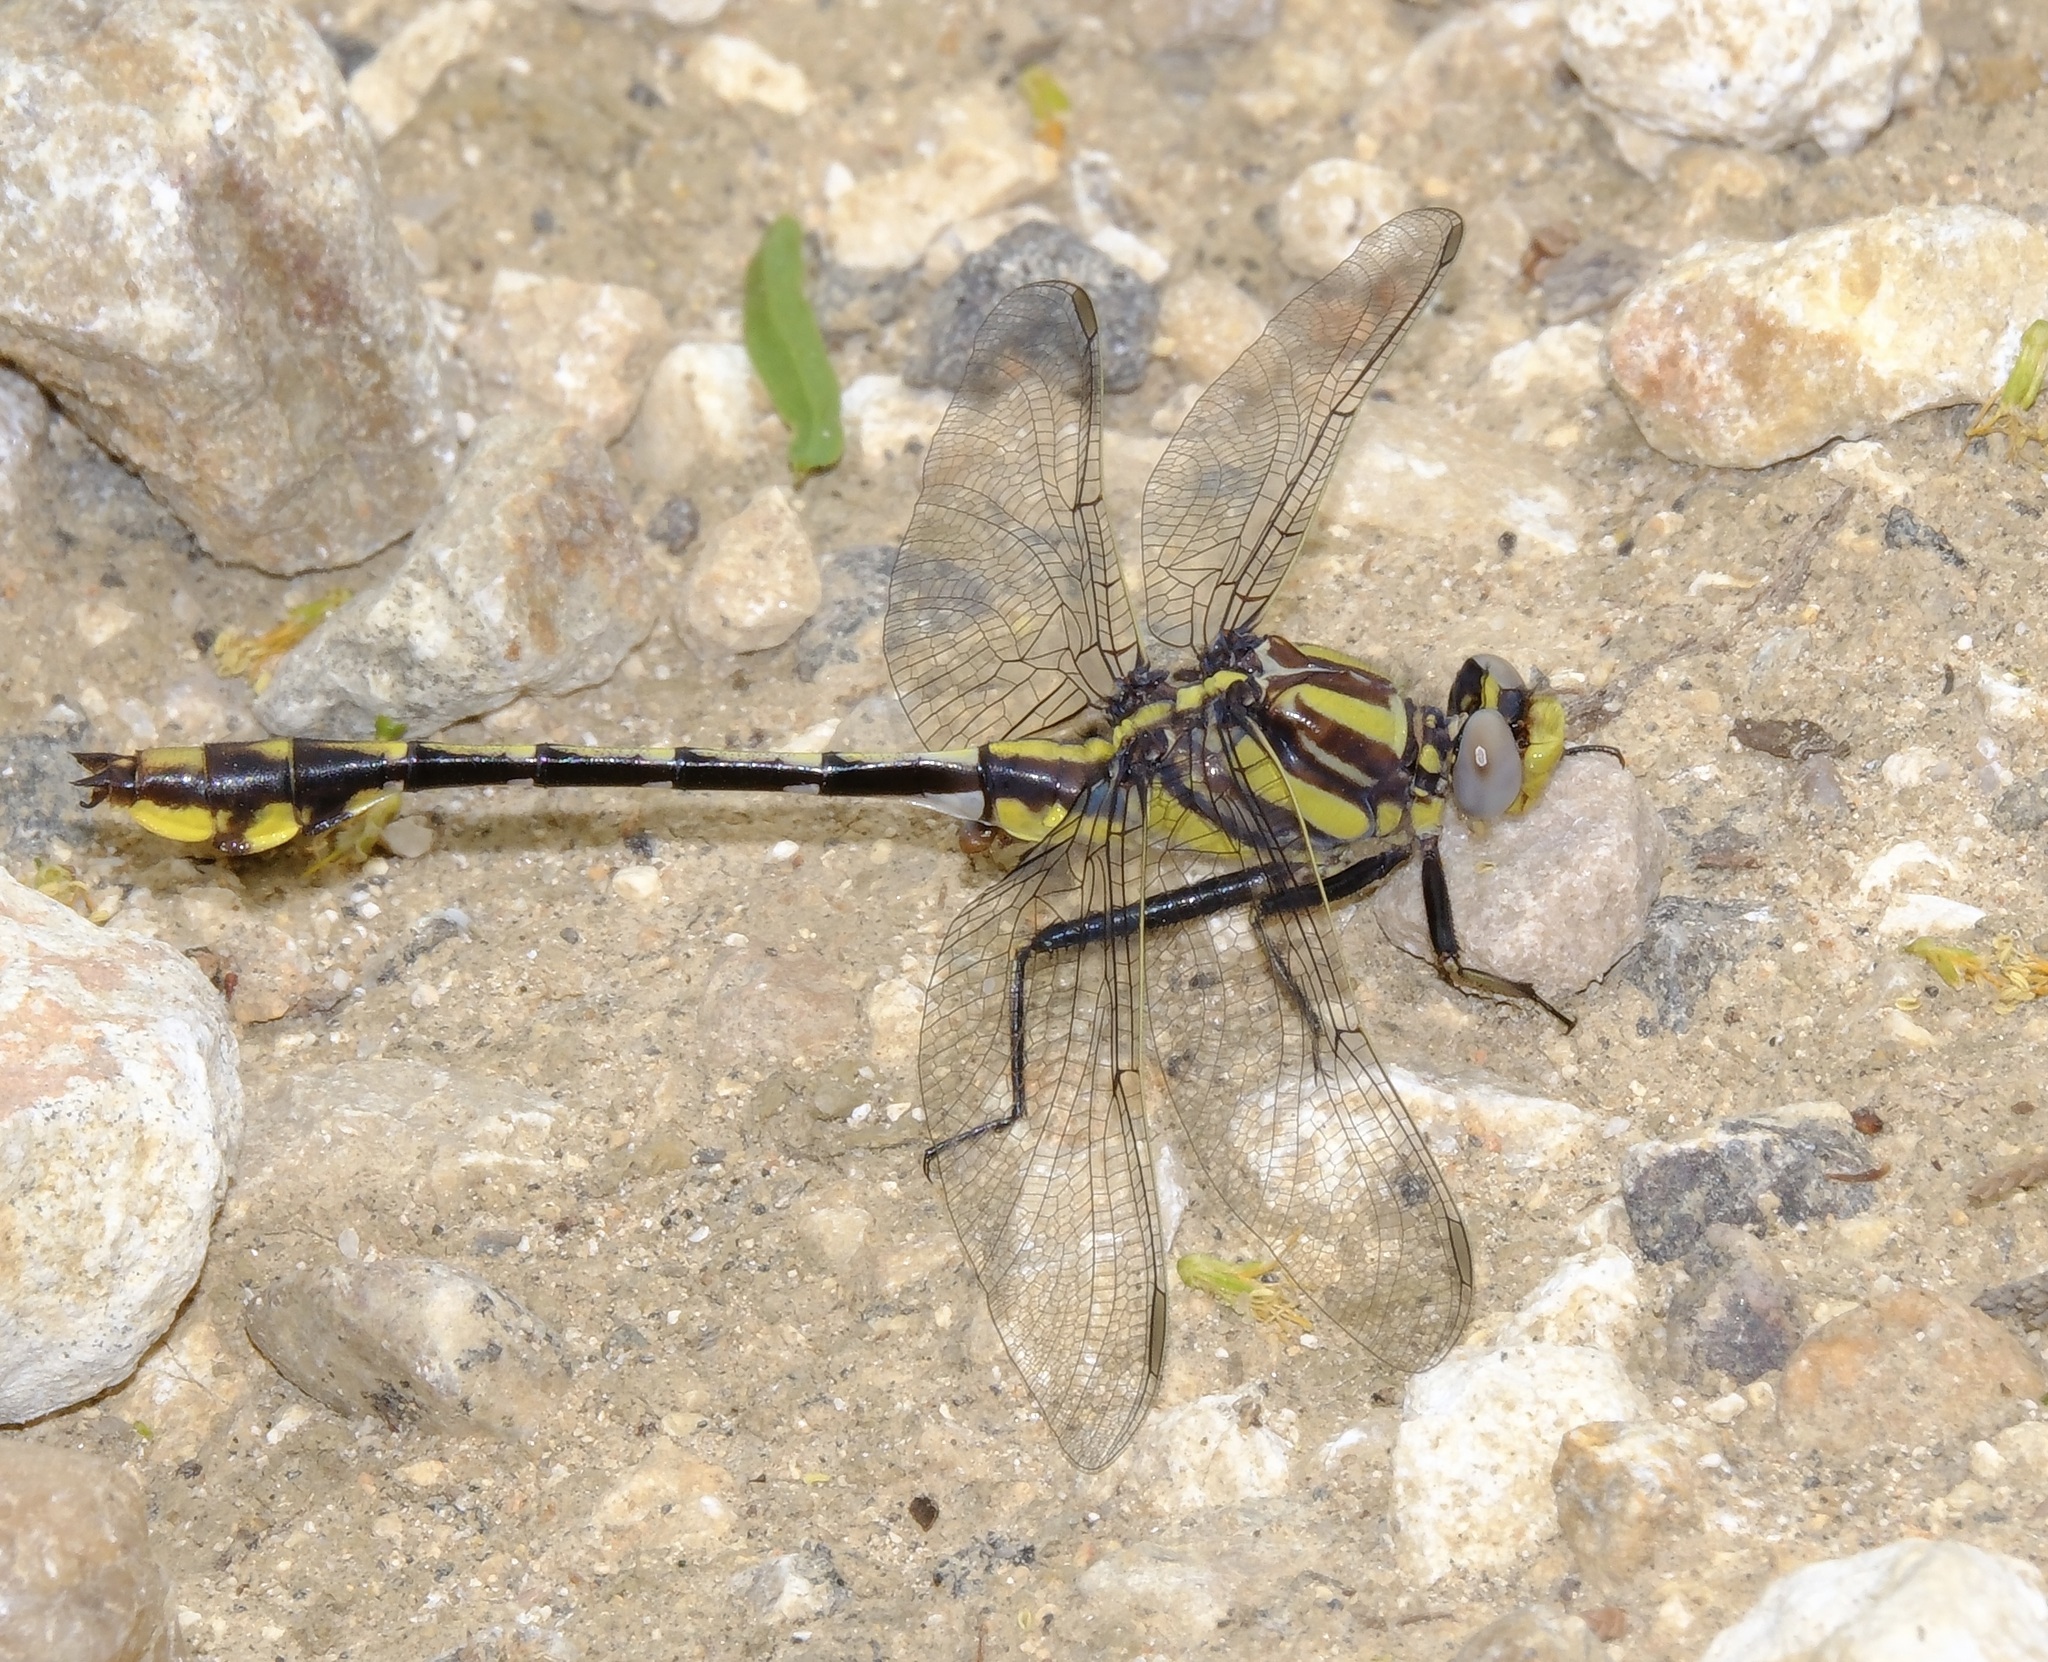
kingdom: Animalia
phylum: Arthropoda
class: Insecta
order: Odonata
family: Gomphidae
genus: Gomphurus
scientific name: Gomphurus externus
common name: Plains clubtail
